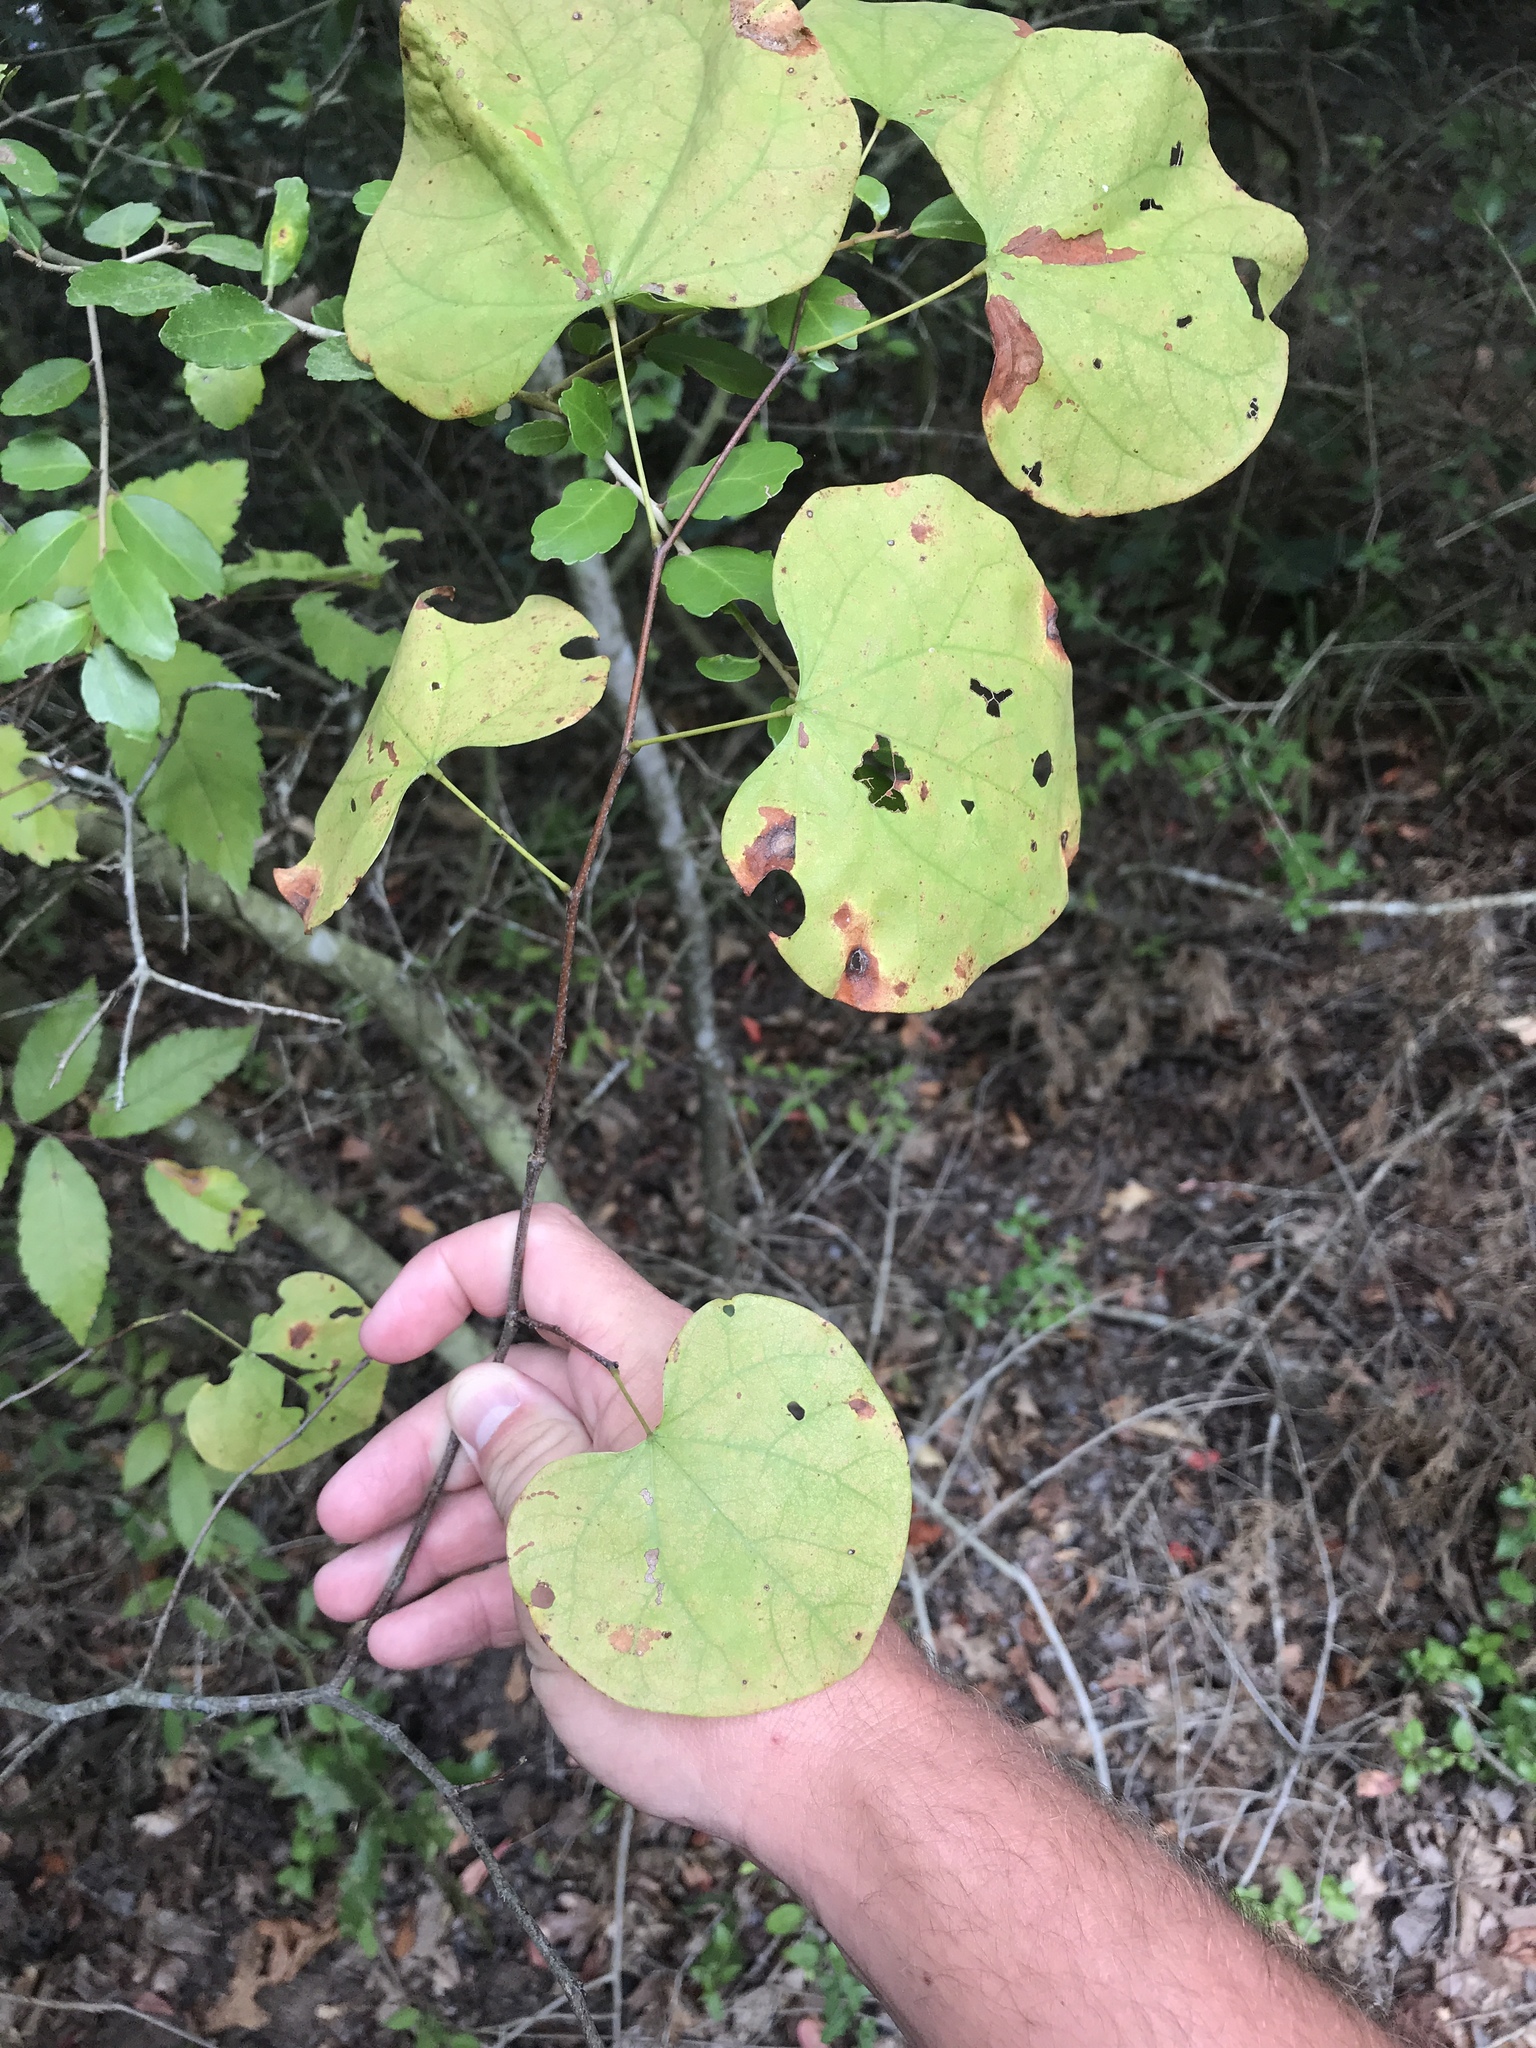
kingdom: Plantae
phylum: Tracheophyta
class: Magnoliopsida
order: Fabales
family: Fabaceae
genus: Cercis
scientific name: Cercis canadensis
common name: Eastern redbud
